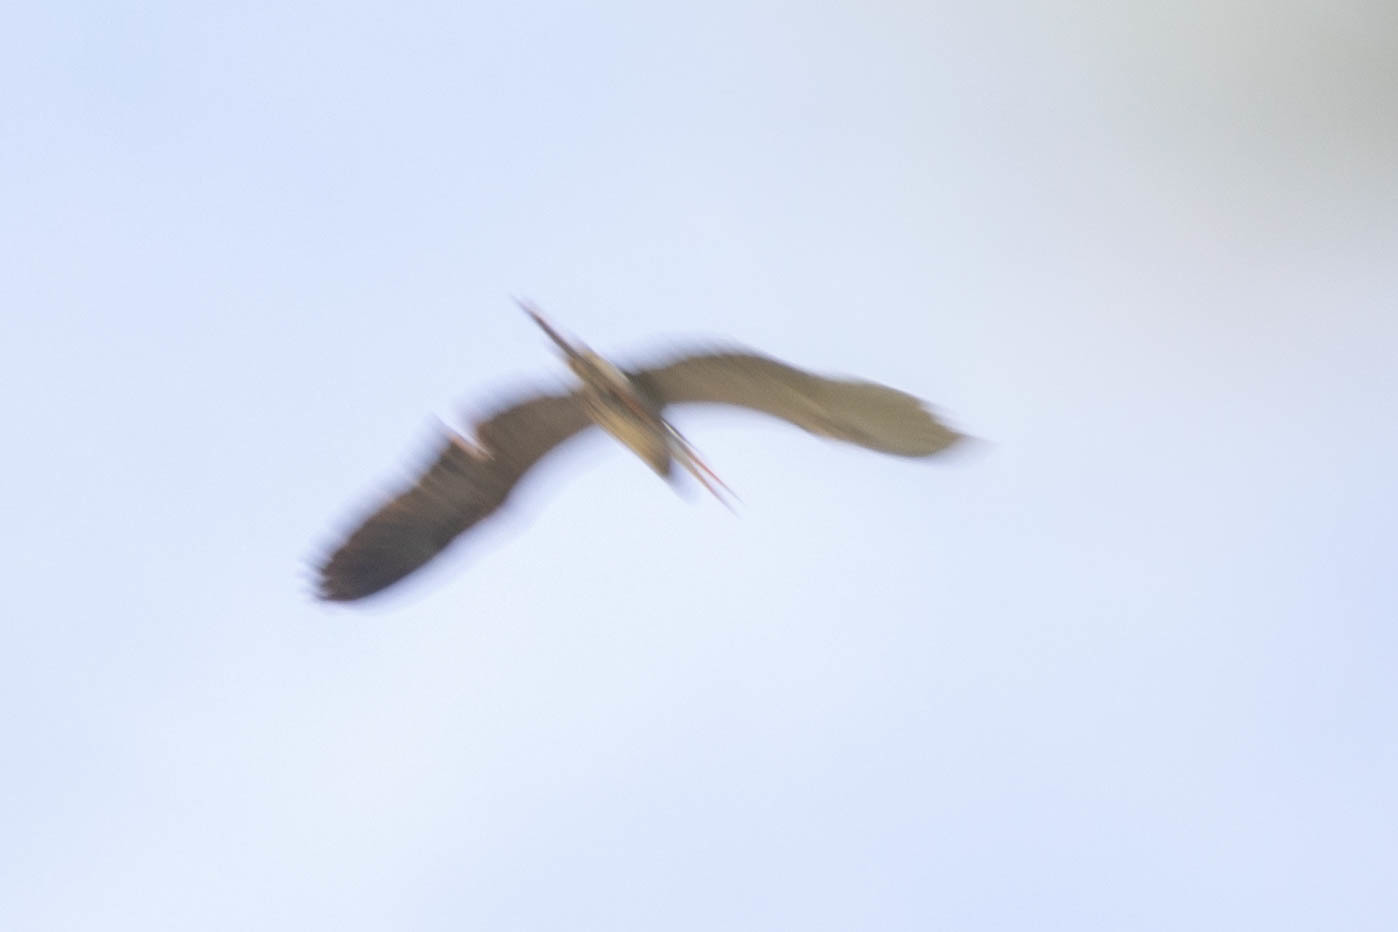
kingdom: Animalia
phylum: Chordata
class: Aves
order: Pelecaniformes
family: Ardeidae
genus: Ardea
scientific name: Ardea herodias
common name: Great blue heron
